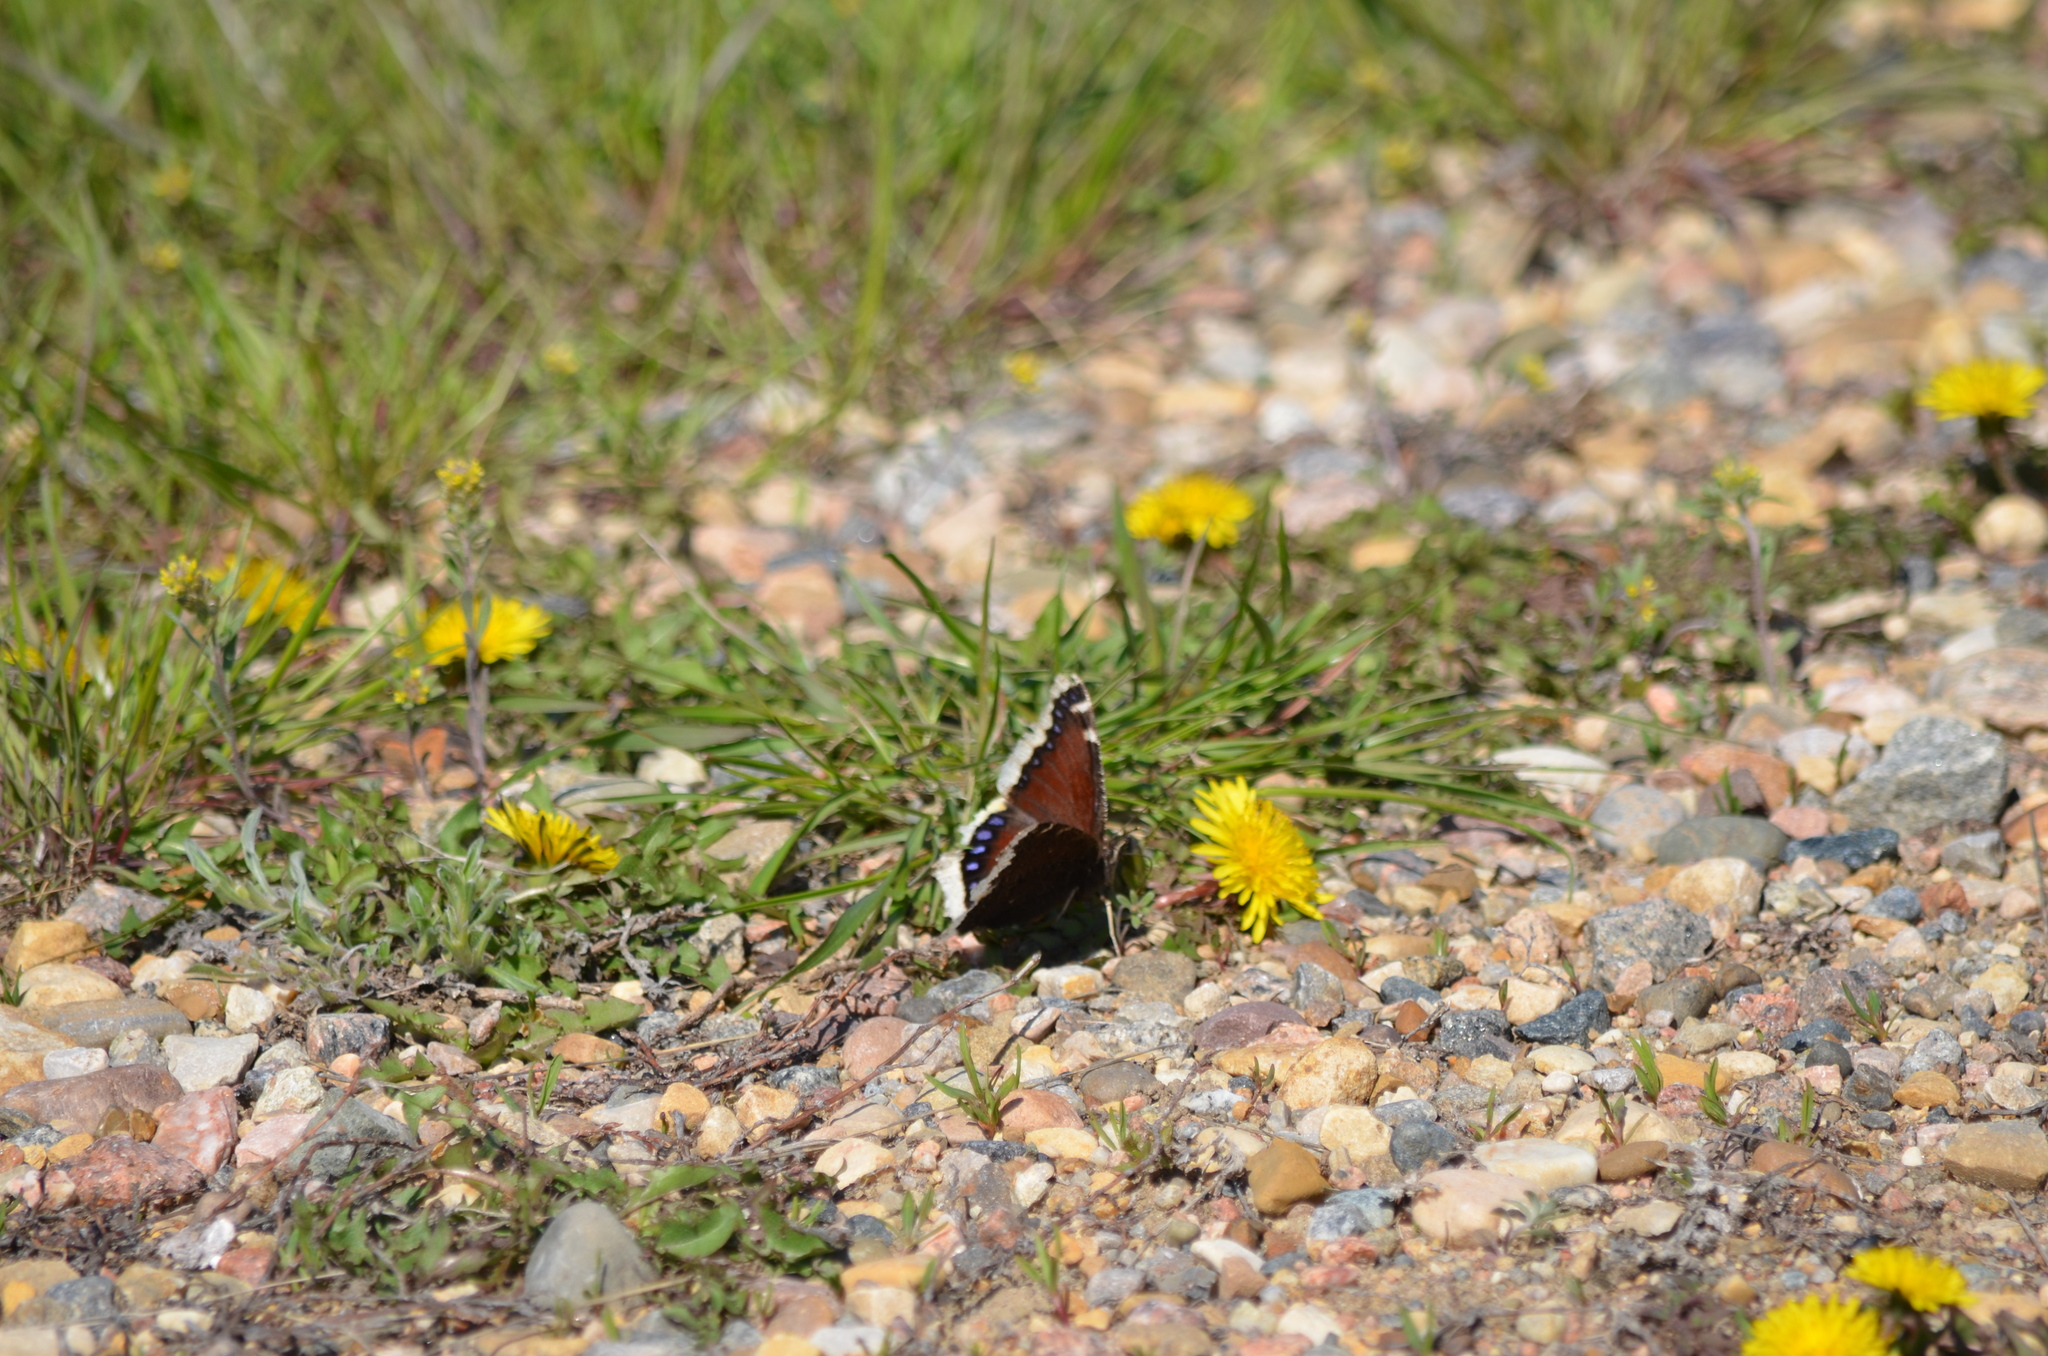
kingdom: Animalia
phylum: Arthropoda
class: Insecta
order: Lepidoptera
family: Nymphalidae
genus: Nymphalis
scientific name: Nymphalis antiopa
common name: Camberwell beauty
